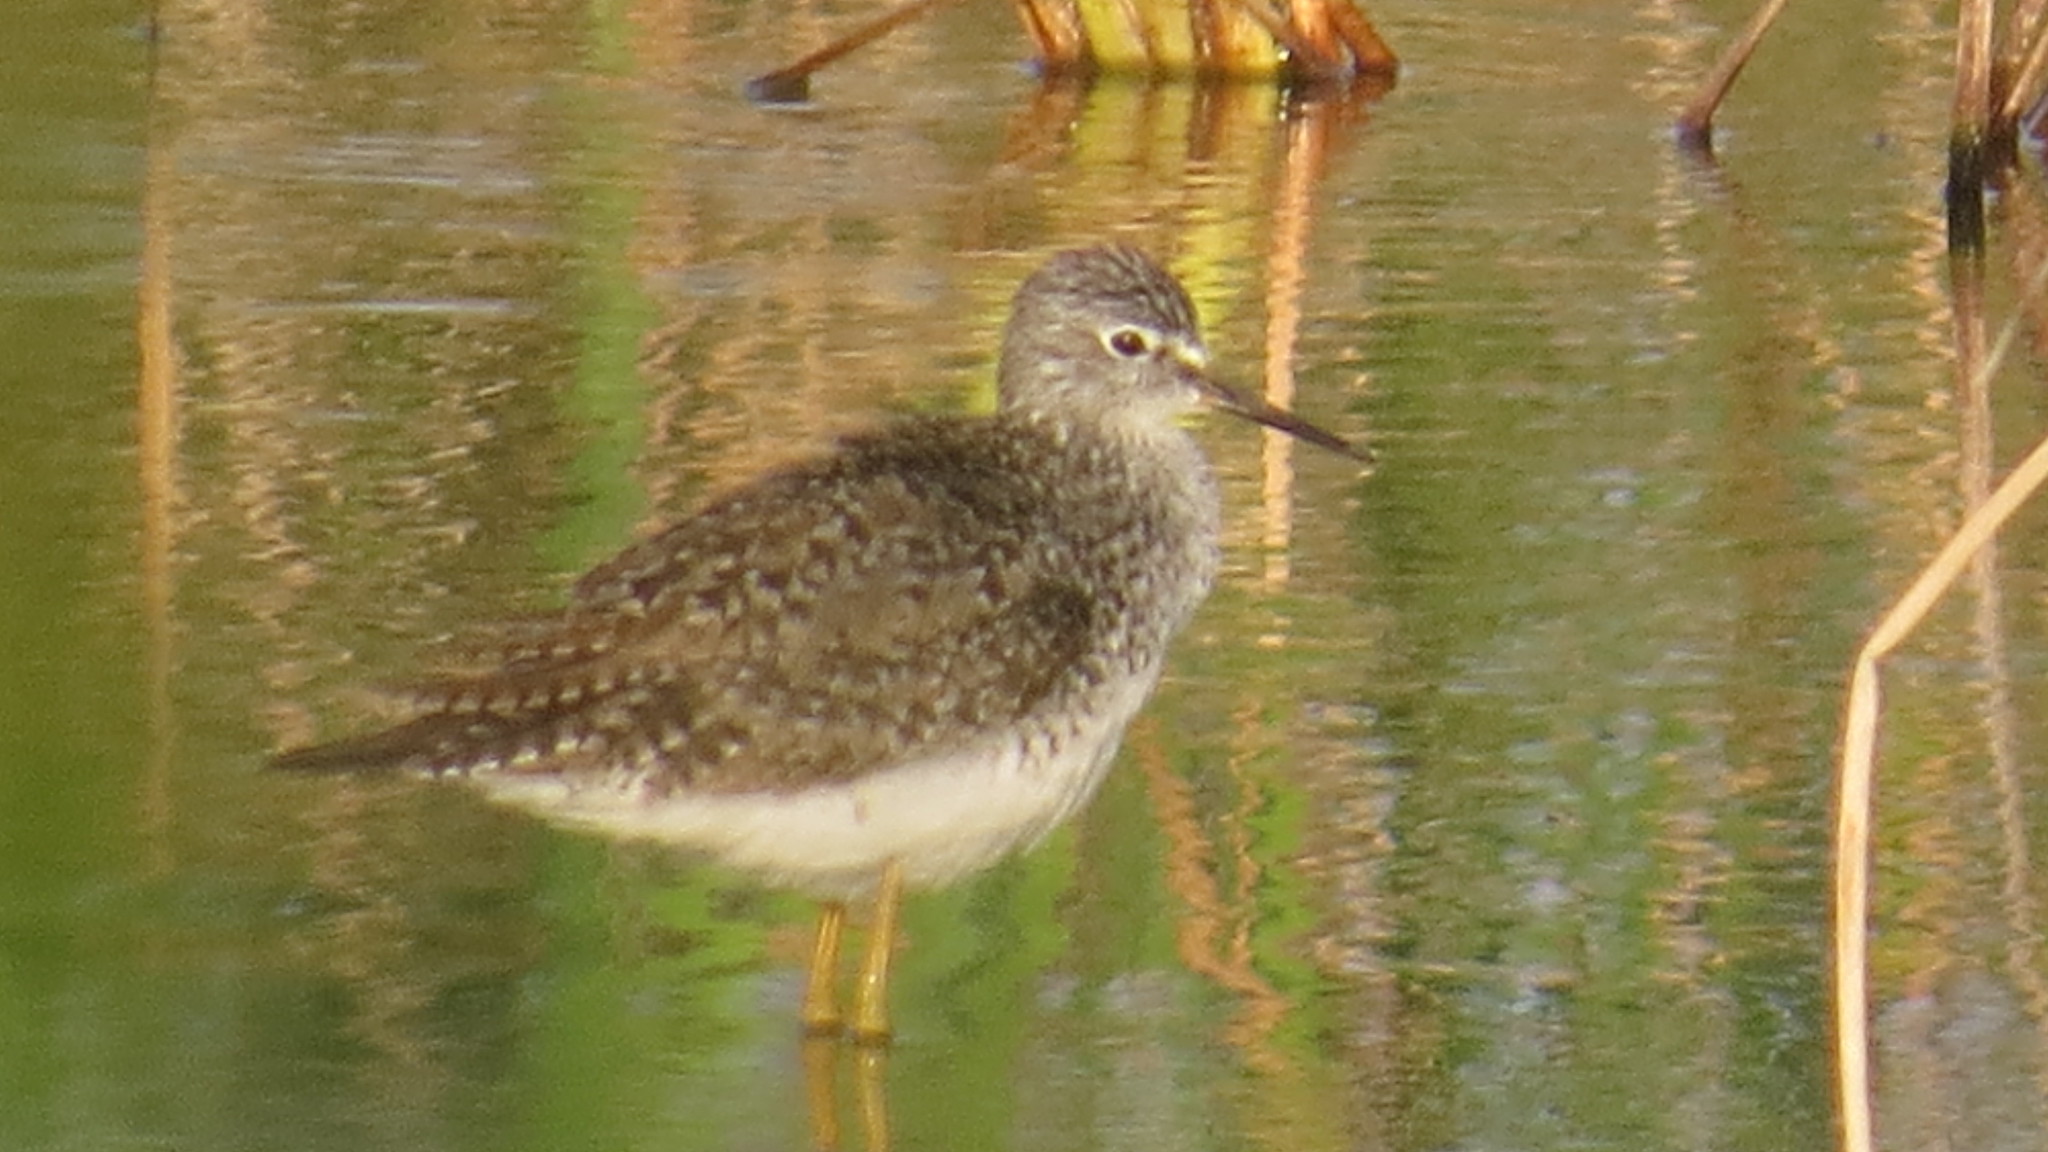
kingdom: Animalia
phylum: Chordata
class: Aves
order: Charadriiformes
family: Scolopacidae
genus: Tringa
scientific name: Tringa flavipes
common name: Lesser yellowlegs
